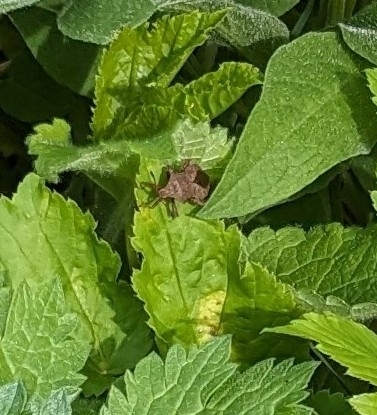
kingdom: Animalia
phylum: Arthropoda
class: Insecta
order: Hemiptera
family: Coreidae
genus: Coreus
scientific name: Coreus marginatus
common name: Dock bug
